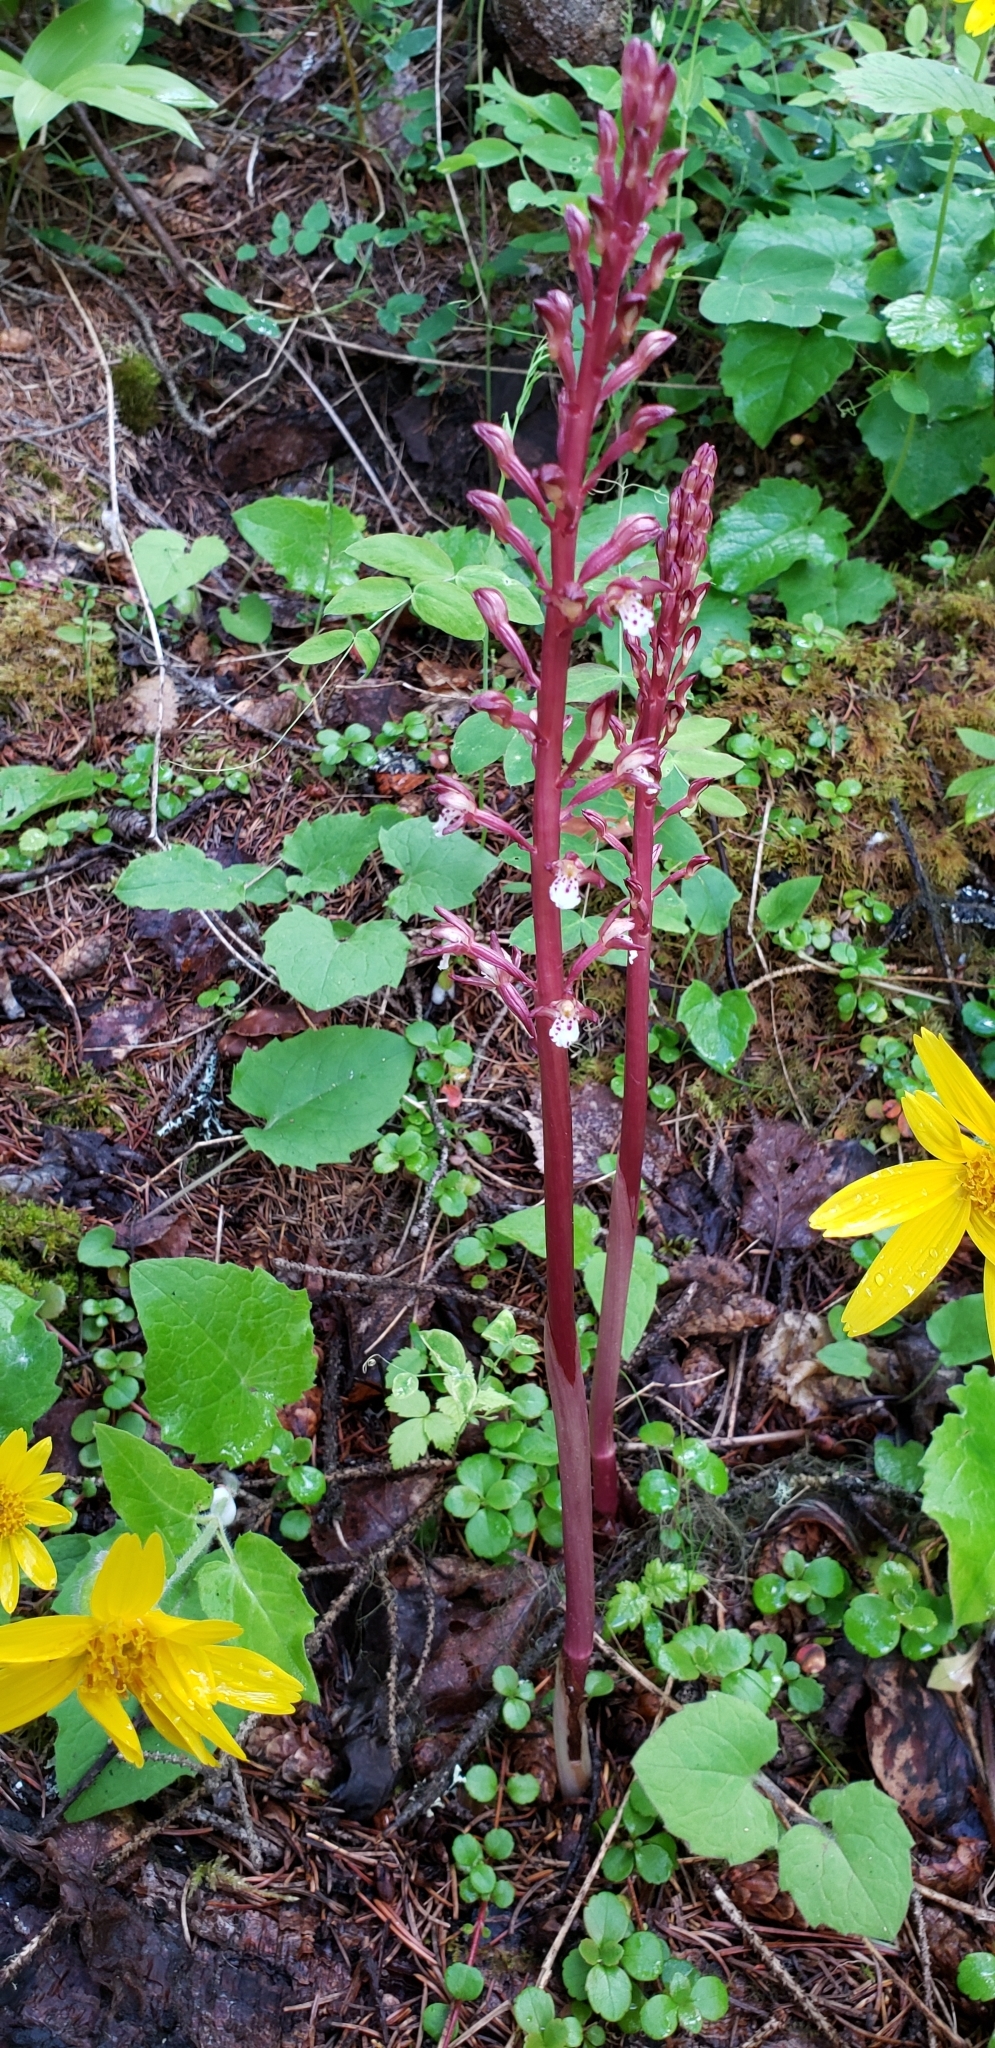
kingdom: Plantae
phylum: Tracheophyta
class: Liliopsida
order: Asparagales
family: Orchidaceae
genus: Corallorhiza
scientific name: Corallorhiza maculata
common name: Spotted coralroot
